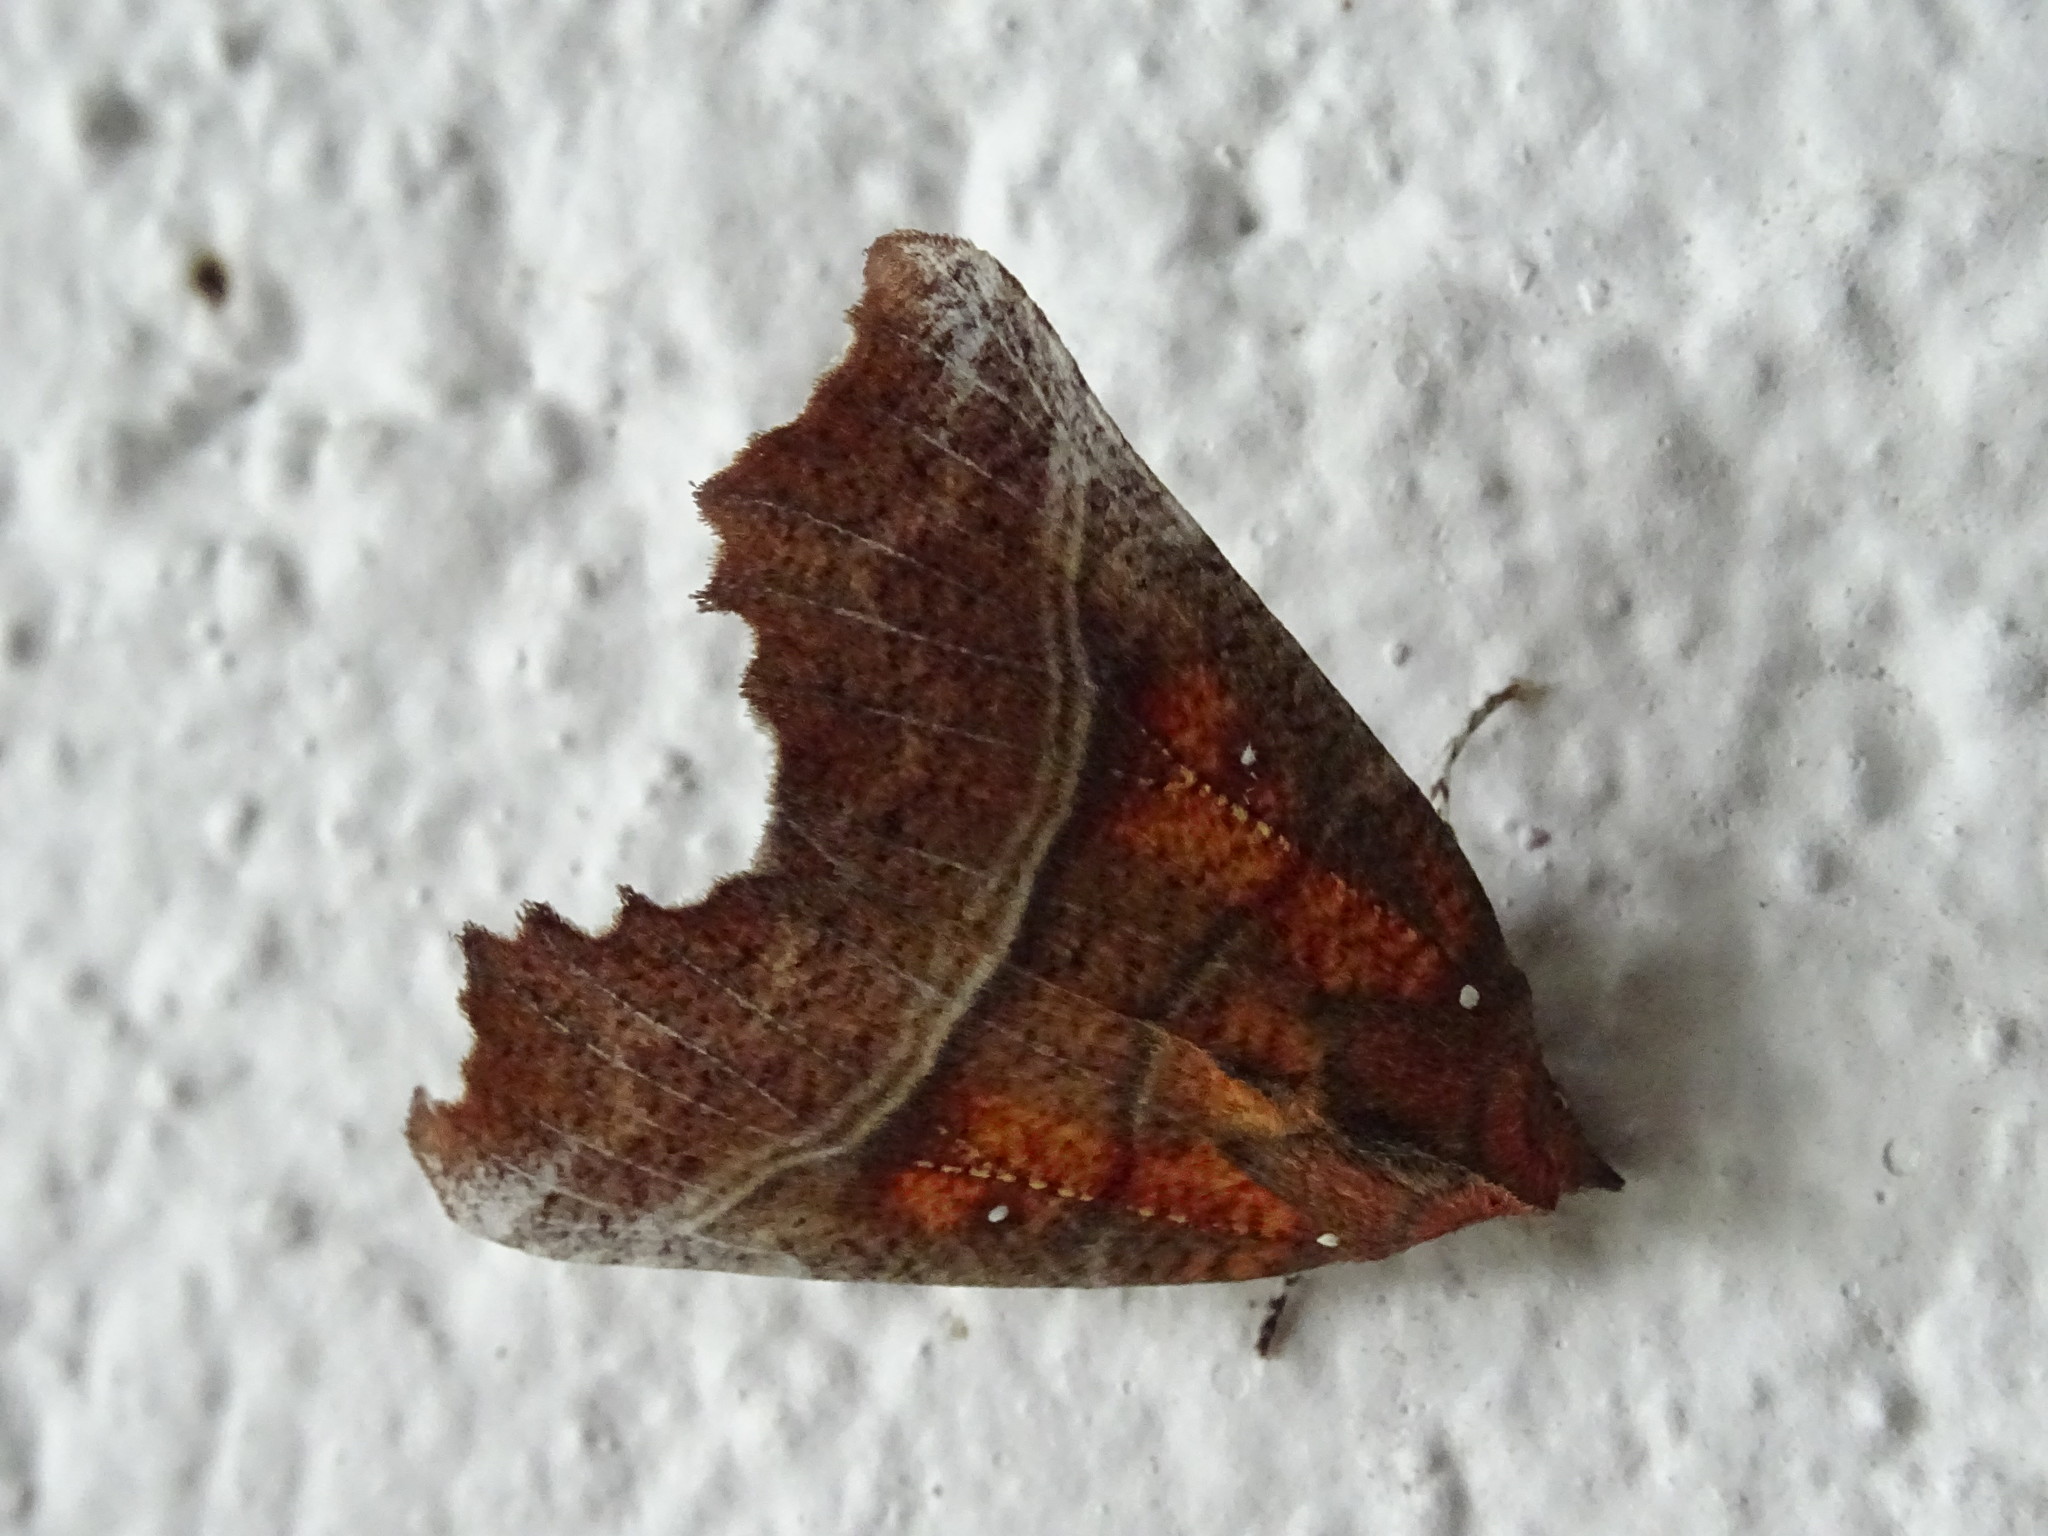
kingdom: Animalia
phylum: Arthropoda
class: Insecta
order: Lepidoptera
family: Erebidae
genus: Scoliopteryx
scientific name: Scoliopteryx libatrix
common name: Herald
